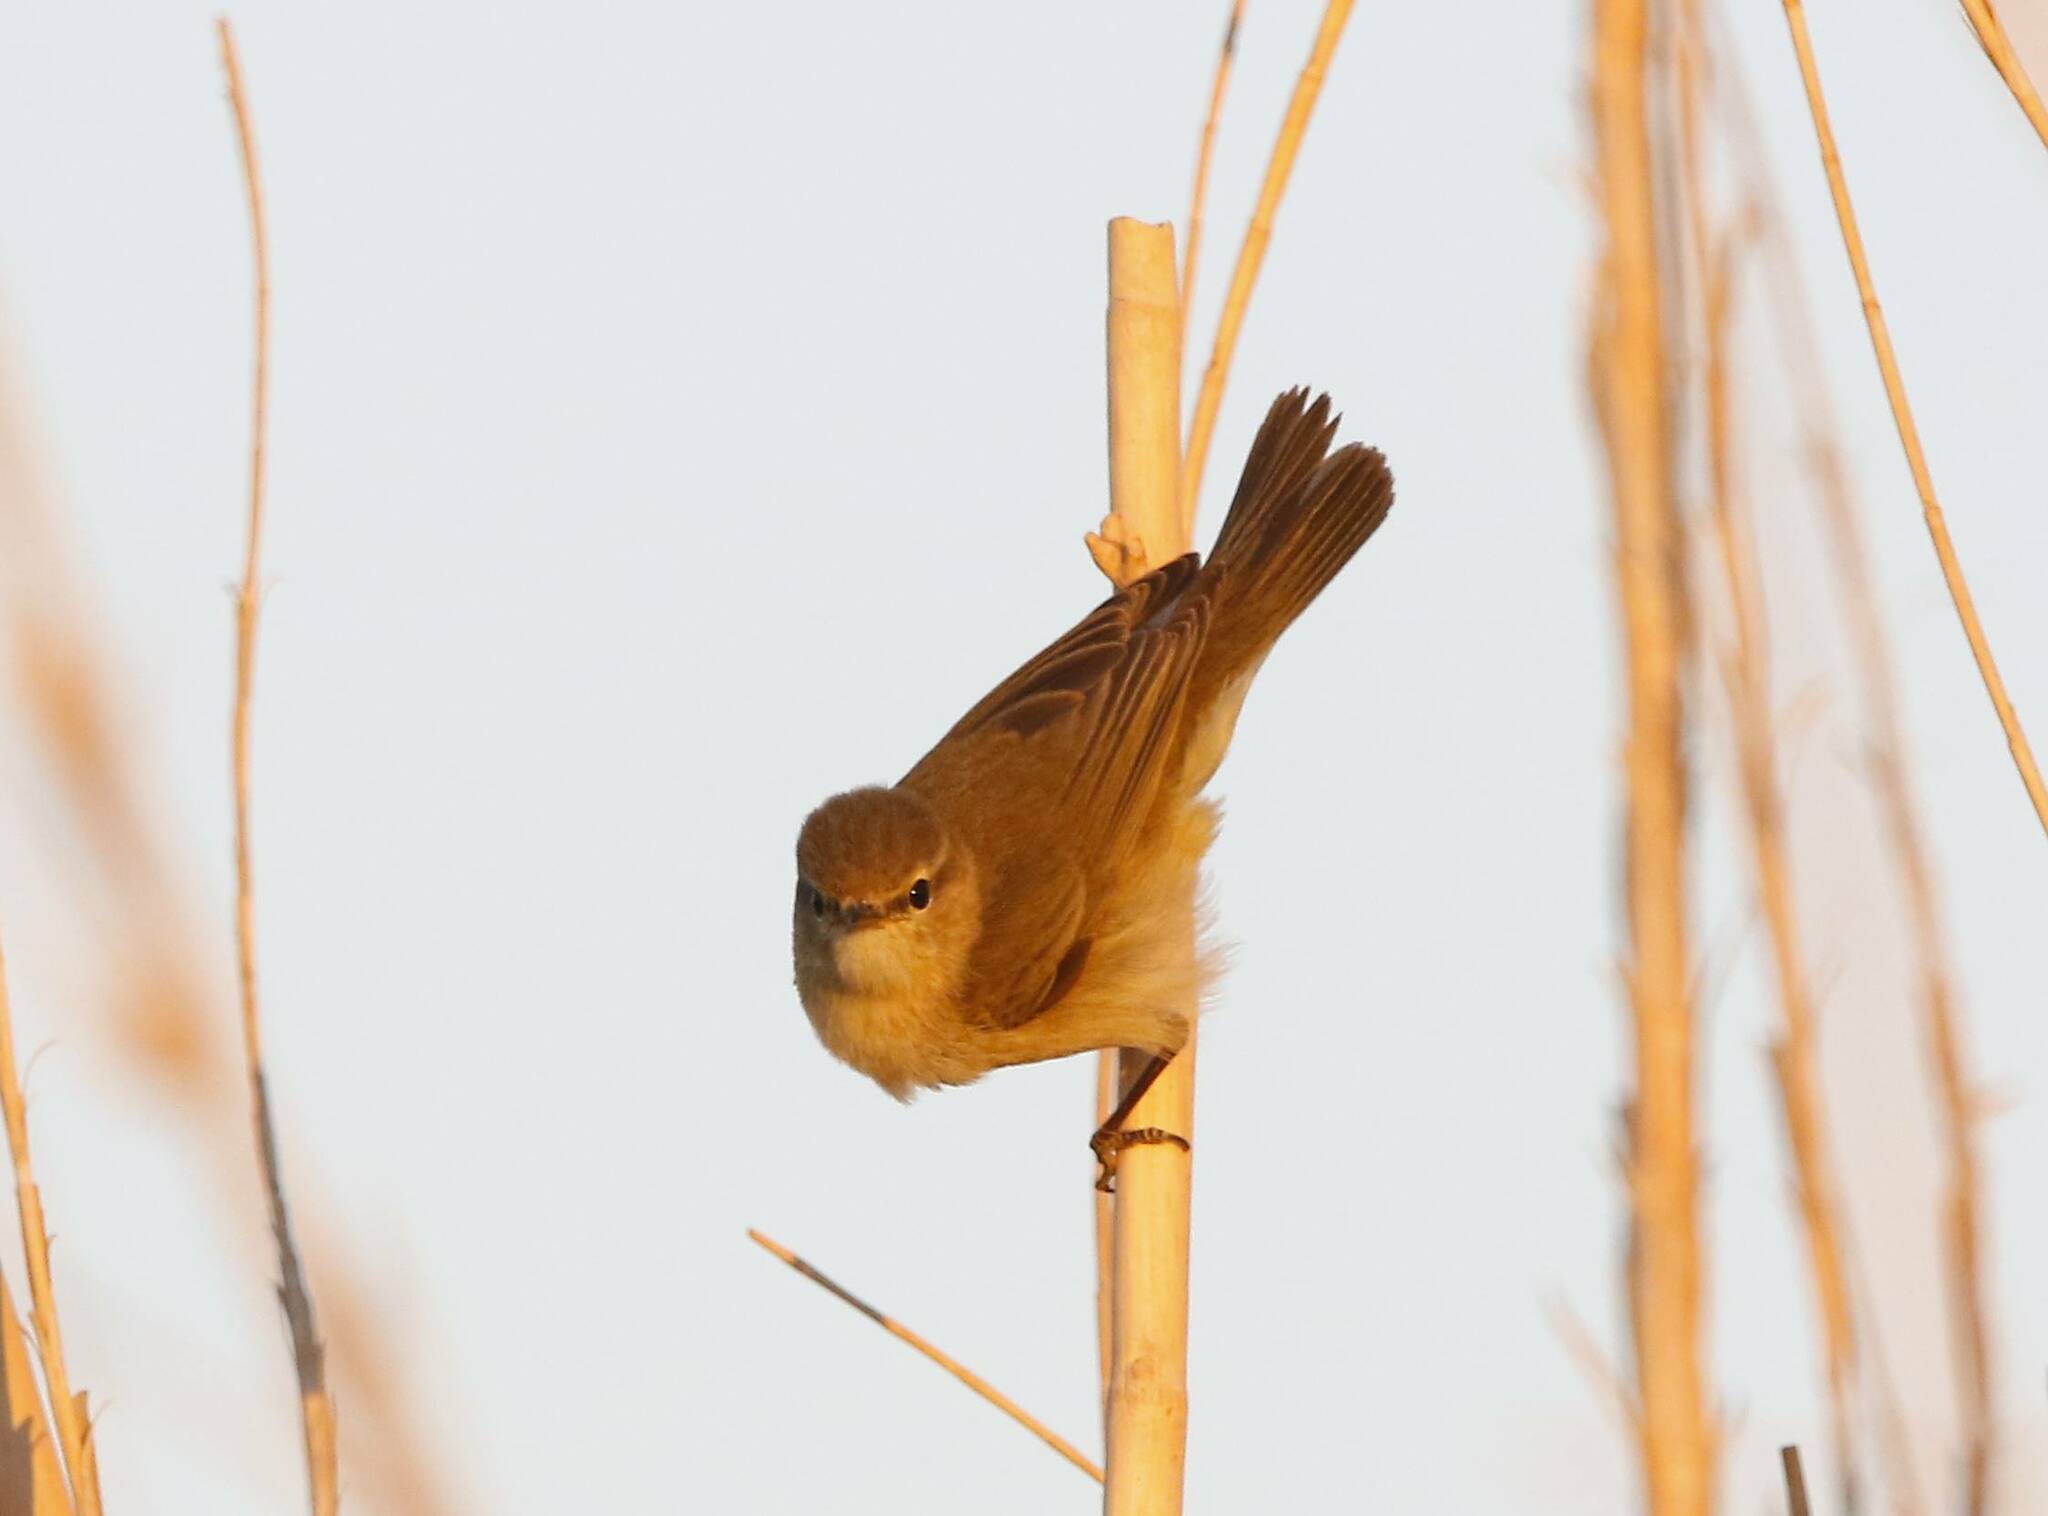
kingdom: Animalia
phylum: Chordata
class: Aves
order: Passeriformes
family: Phylloscopidae
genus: Phylloscopus
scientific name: Phylloscopus collybita
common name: Common chiffchaff
